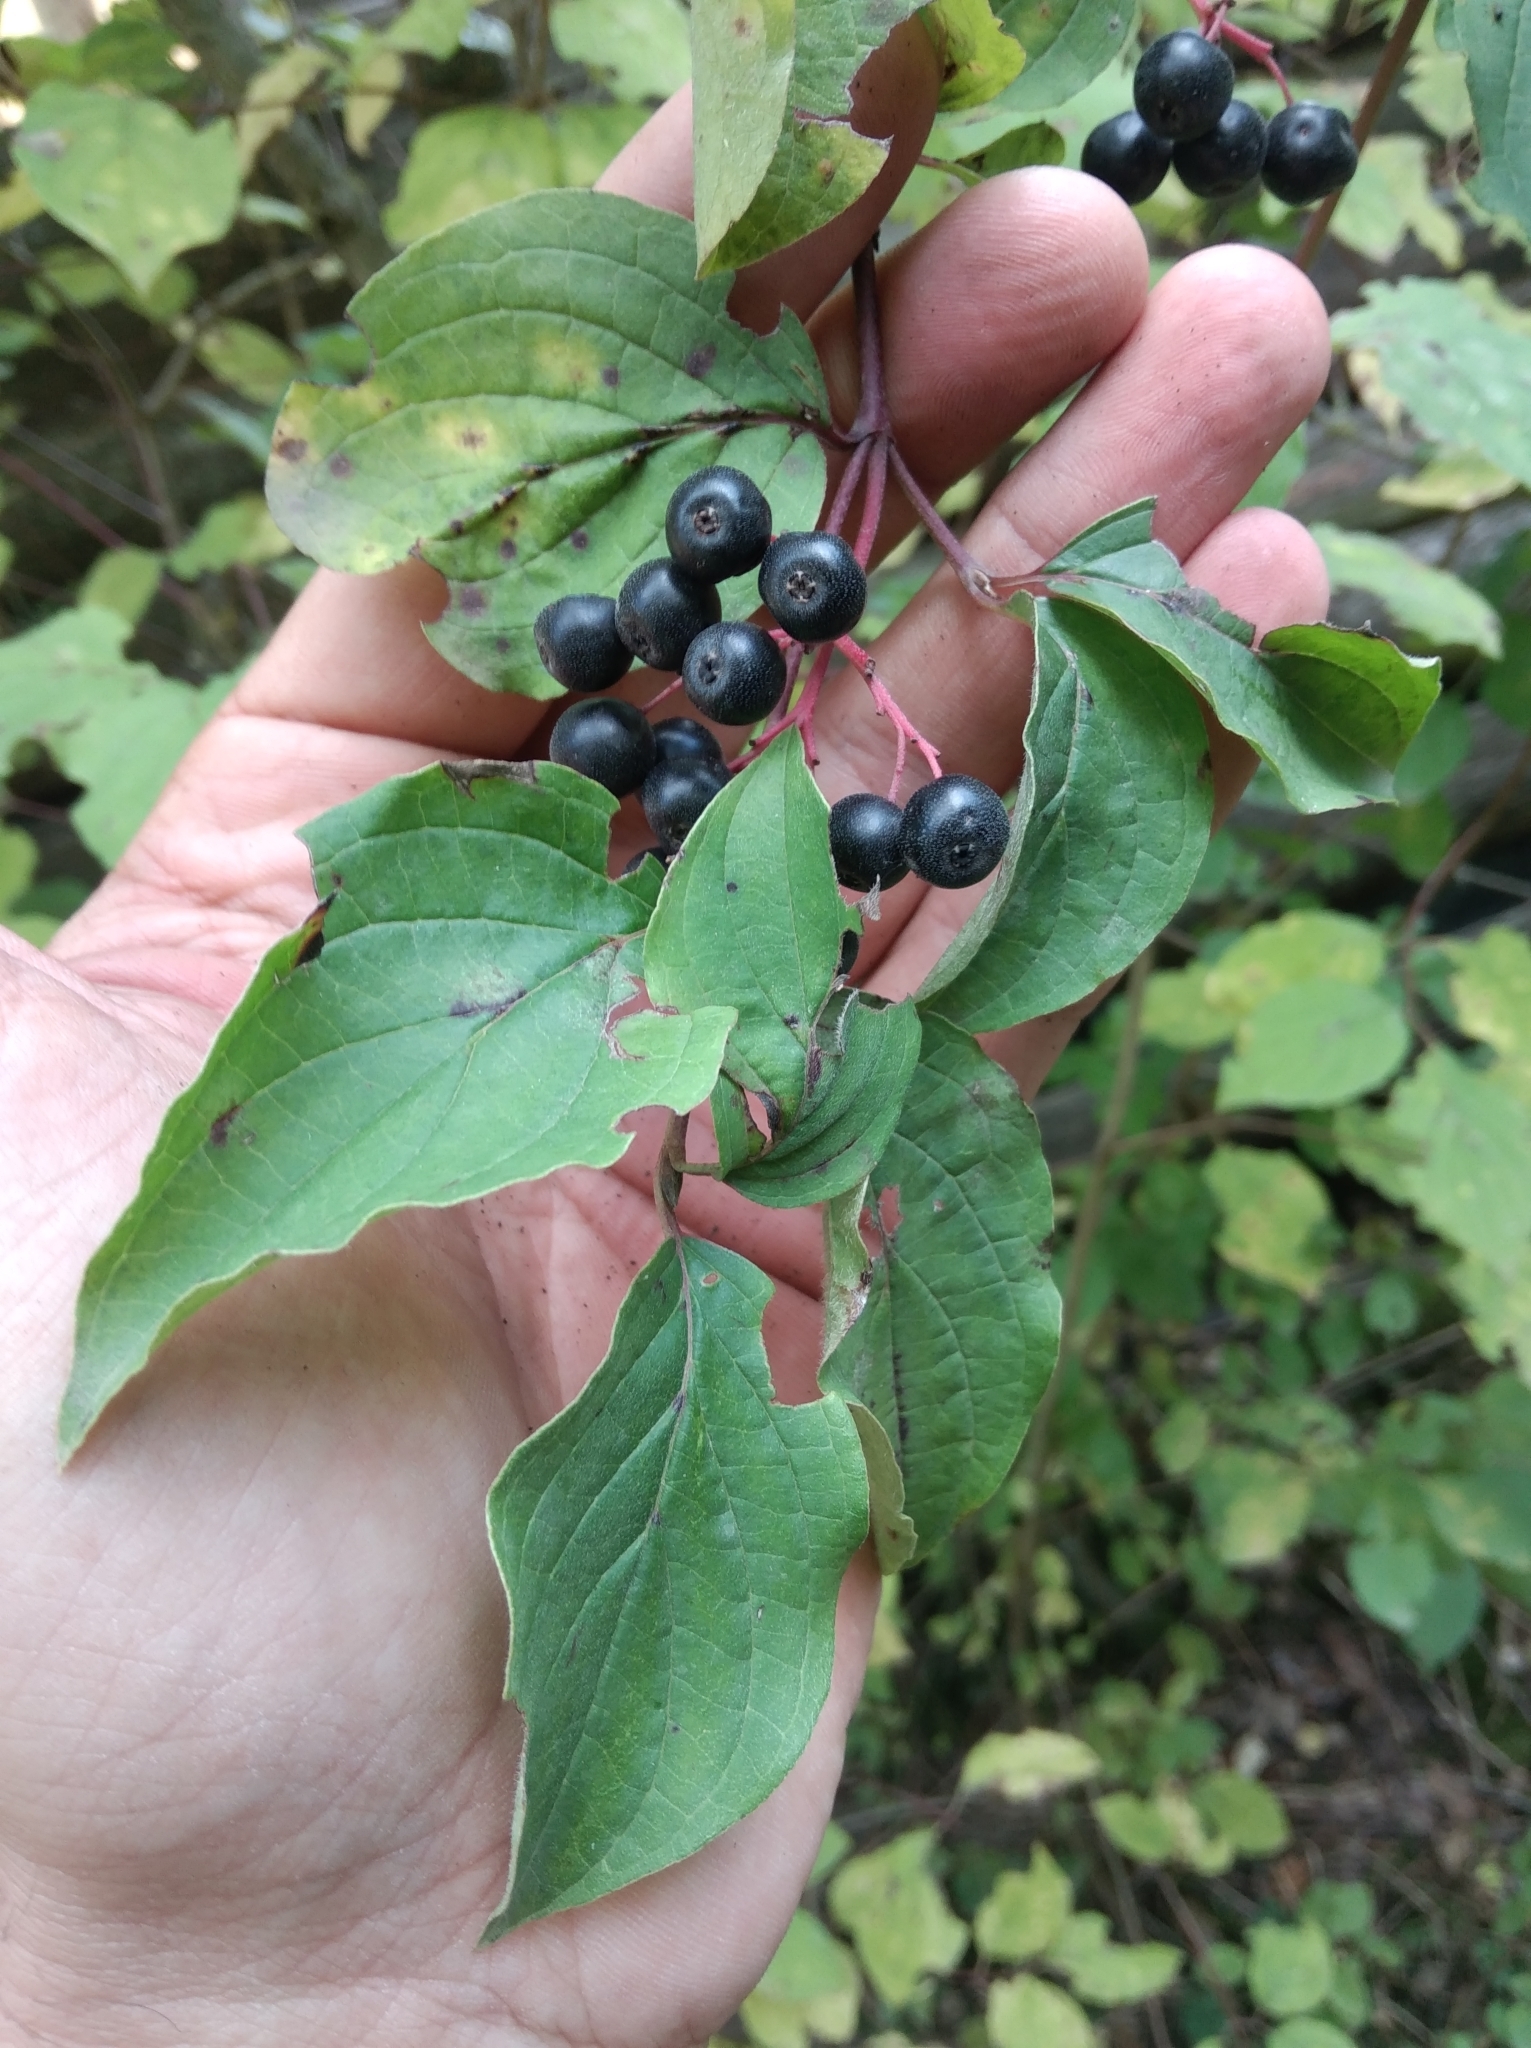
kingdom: Plantae
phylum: Tracheophyta
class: Magnoliopsida
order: Cornales
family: Cornaceae
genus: Cornus
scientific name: Cornus sanguinea
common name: Dogwood
